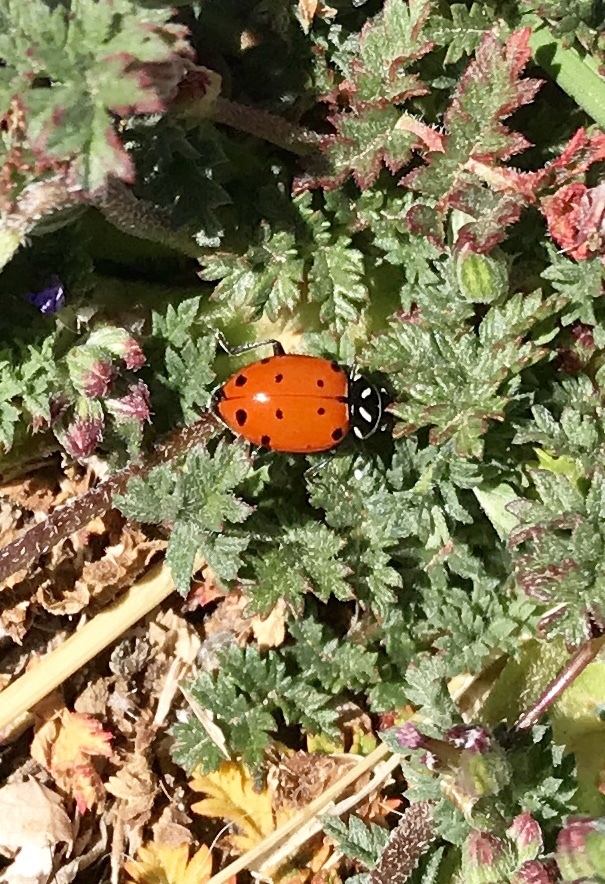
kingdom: Animalia
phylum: Arthropoda
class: Insecta
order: Coleoptera
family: Coccinellidae
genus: Hippodamia
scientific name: Hippodamia convergens
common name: Convergent lady beetle
